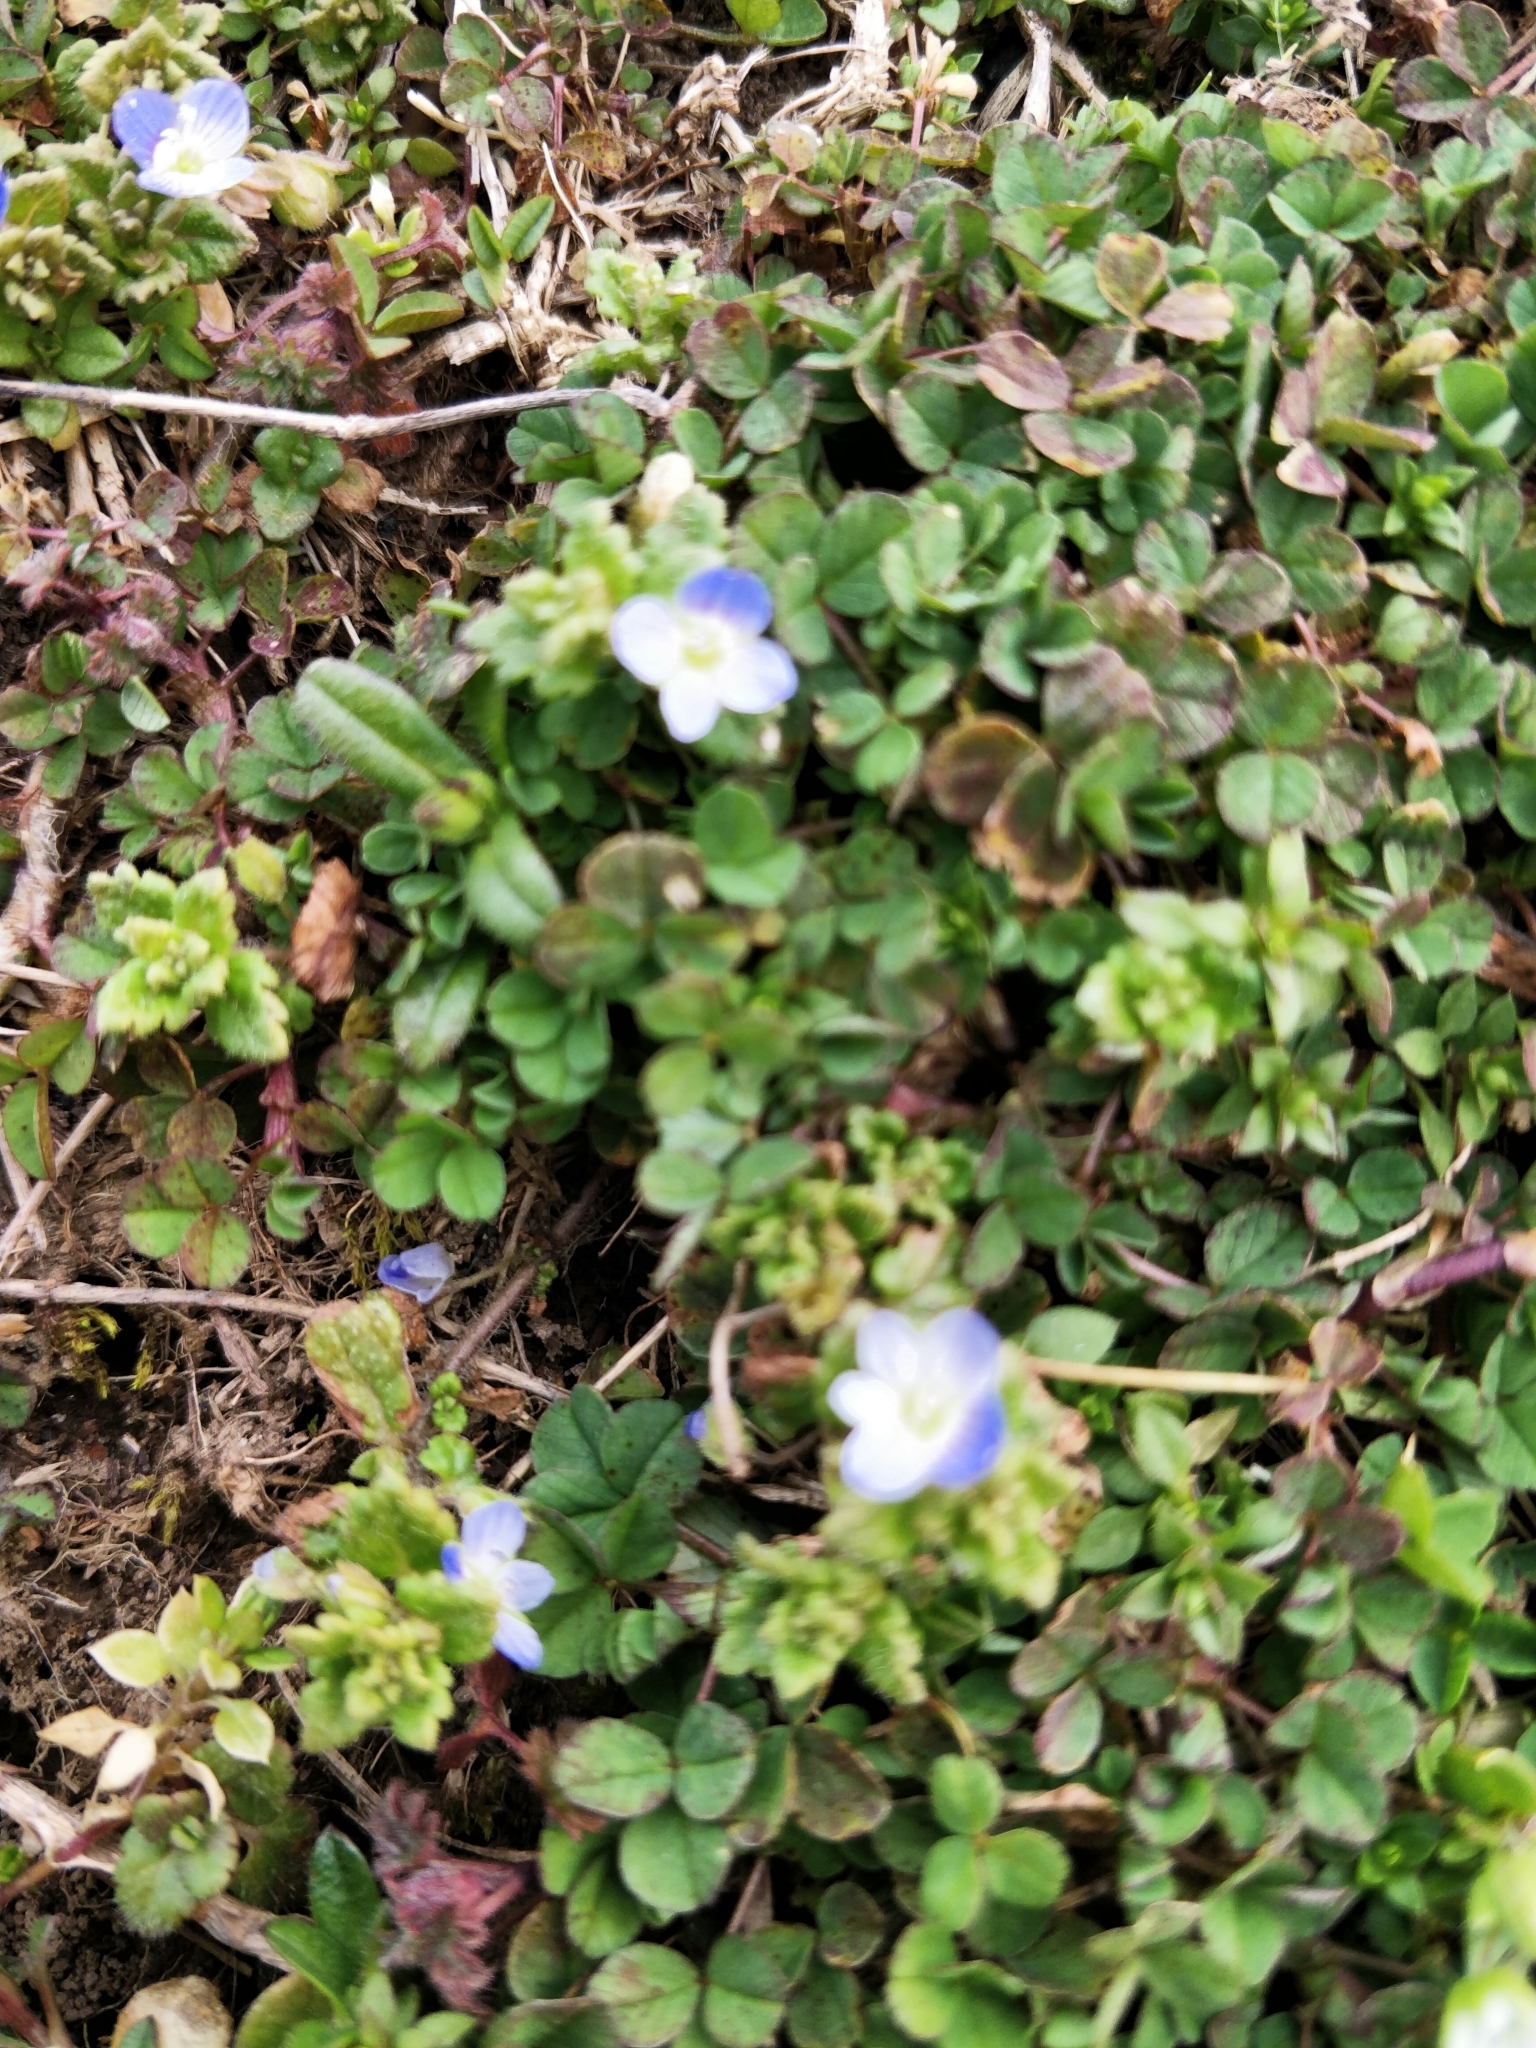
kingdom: Plantae
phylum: Tracheophyta
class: Magnoliopsida
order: Lamiales
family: Plantaginaceae
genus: Veronica
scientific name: Veronica persica
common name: Common field-speedwell
